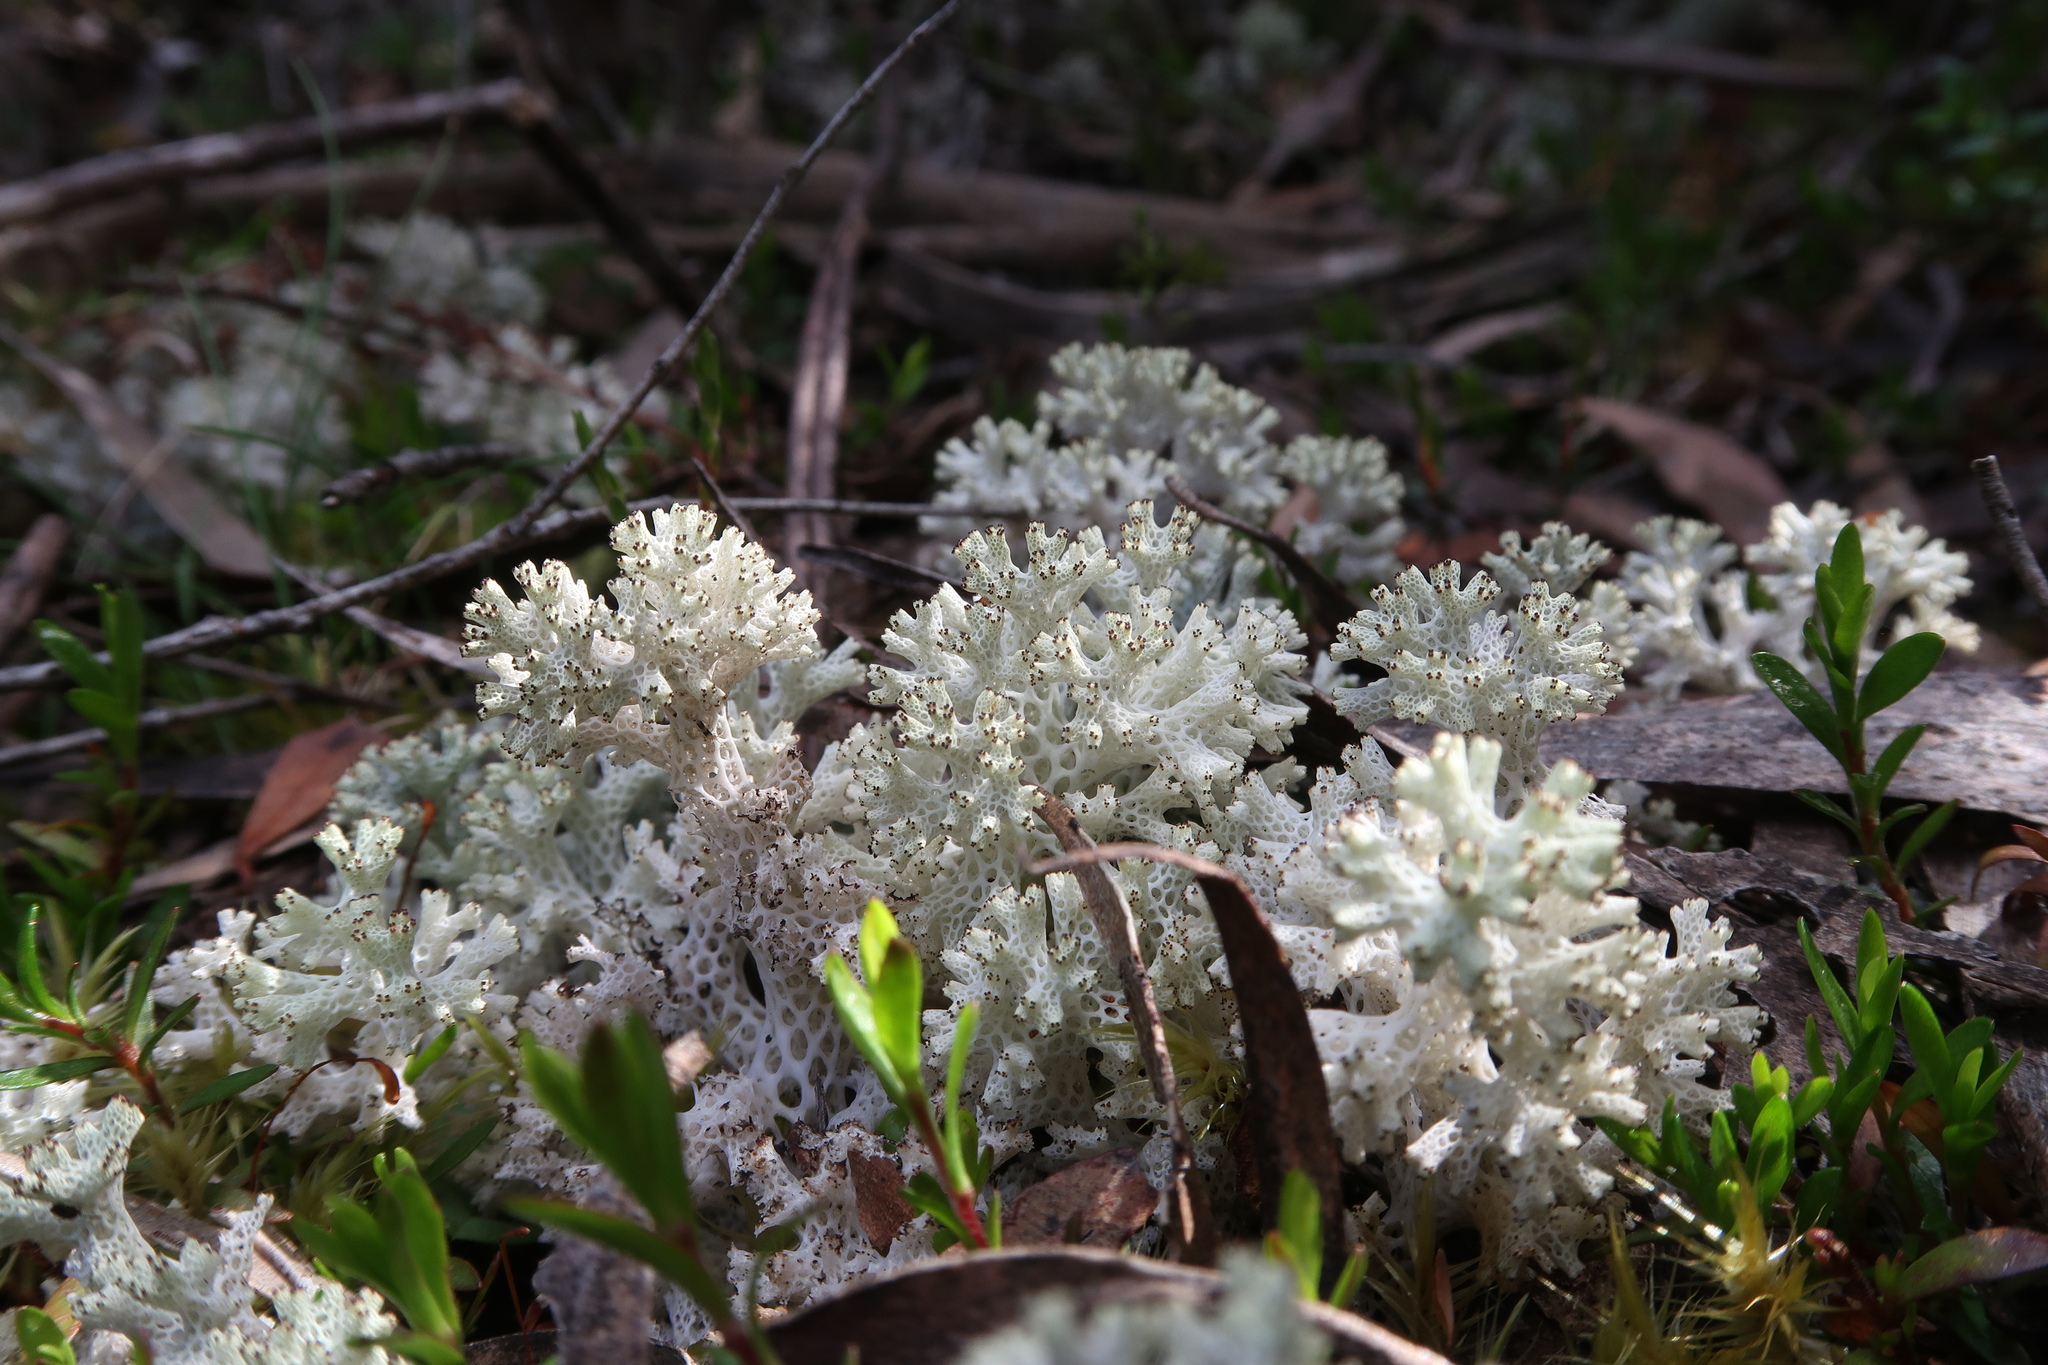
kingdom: Fungi
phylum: Ascomycota
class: Lecanoromycetes
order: Lecanorales
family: Cladoniaceae
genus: Pulchrocladia
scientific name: Pulchrocladia retipora
